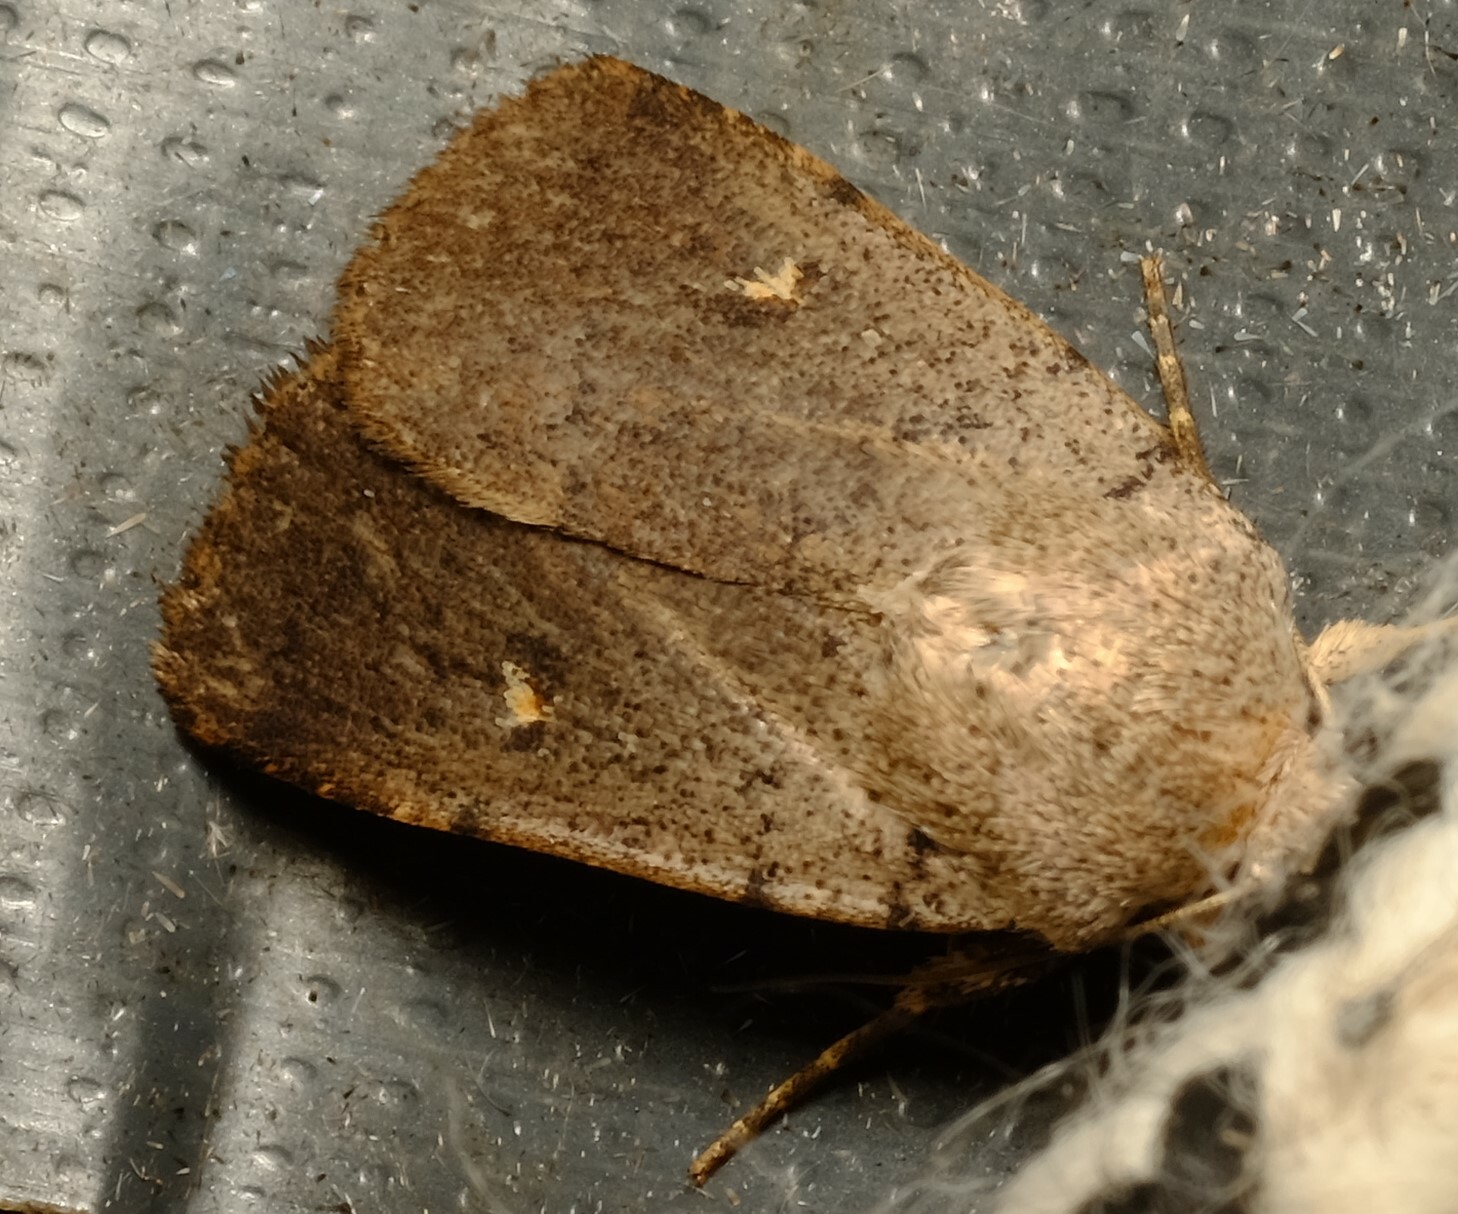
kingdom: Animalia
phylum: Arthropoda
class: Insecta
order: Lepidoptera
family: Noctuidae
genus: Proteuxoa
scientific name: Proteuxoa adelopa
